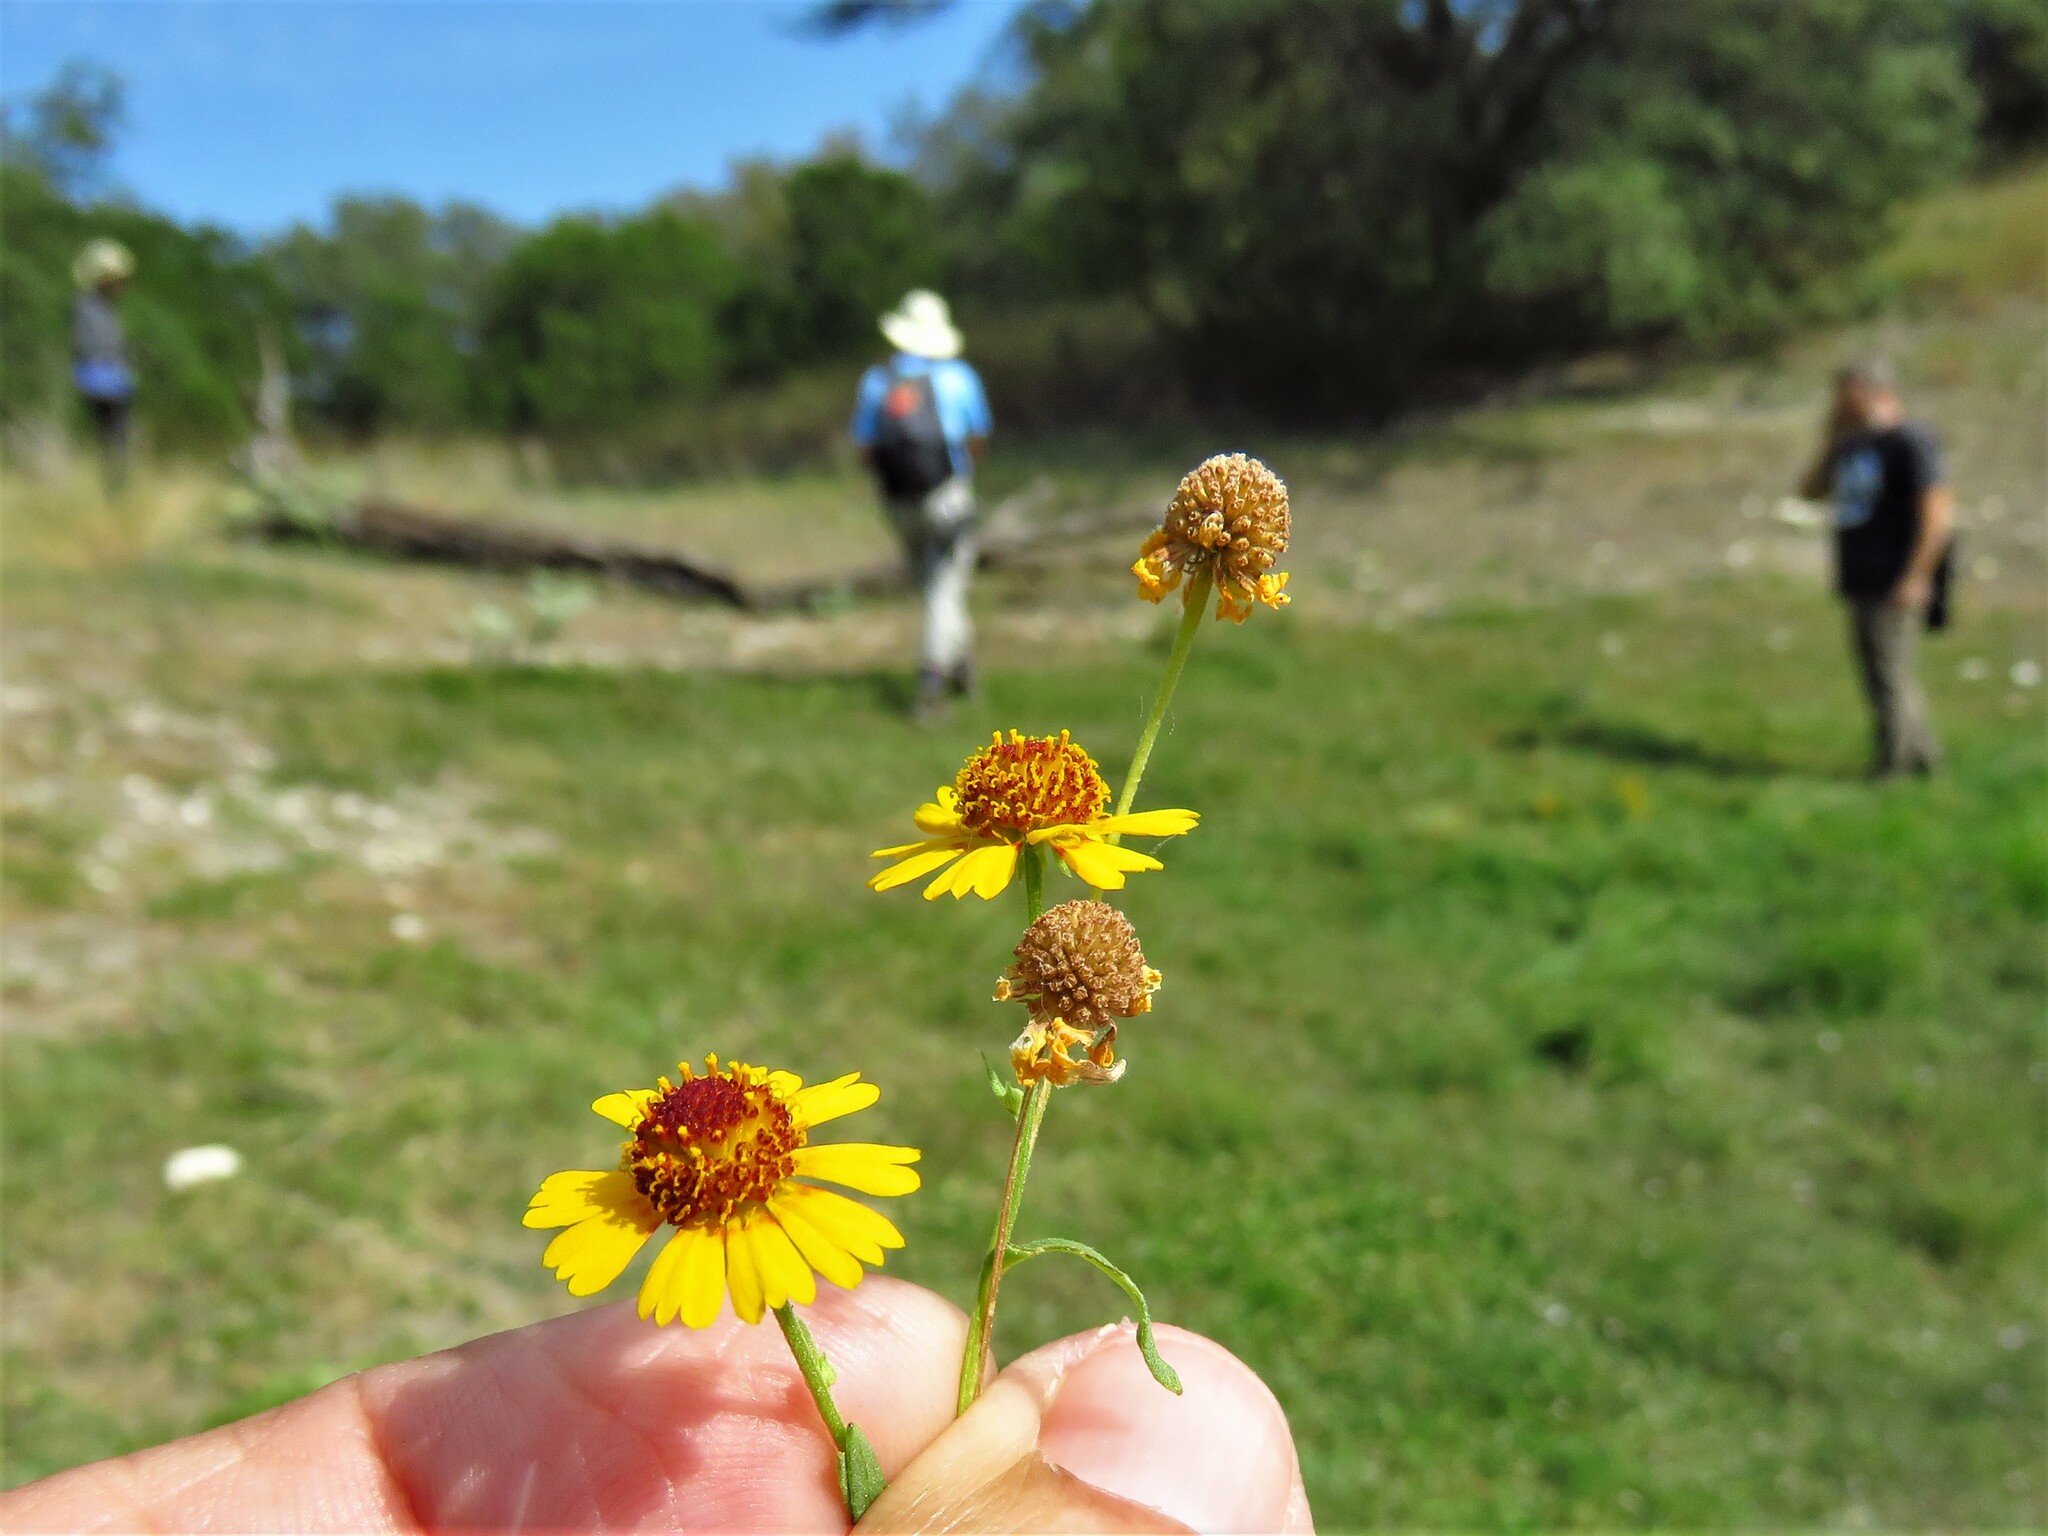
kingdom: Plantae
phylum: Tracheophyta
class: Magnoliopsida
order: Asterales
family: Asteraceae
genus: Helenium
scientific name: Helenium elegans
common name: Pretty sneezeweed
